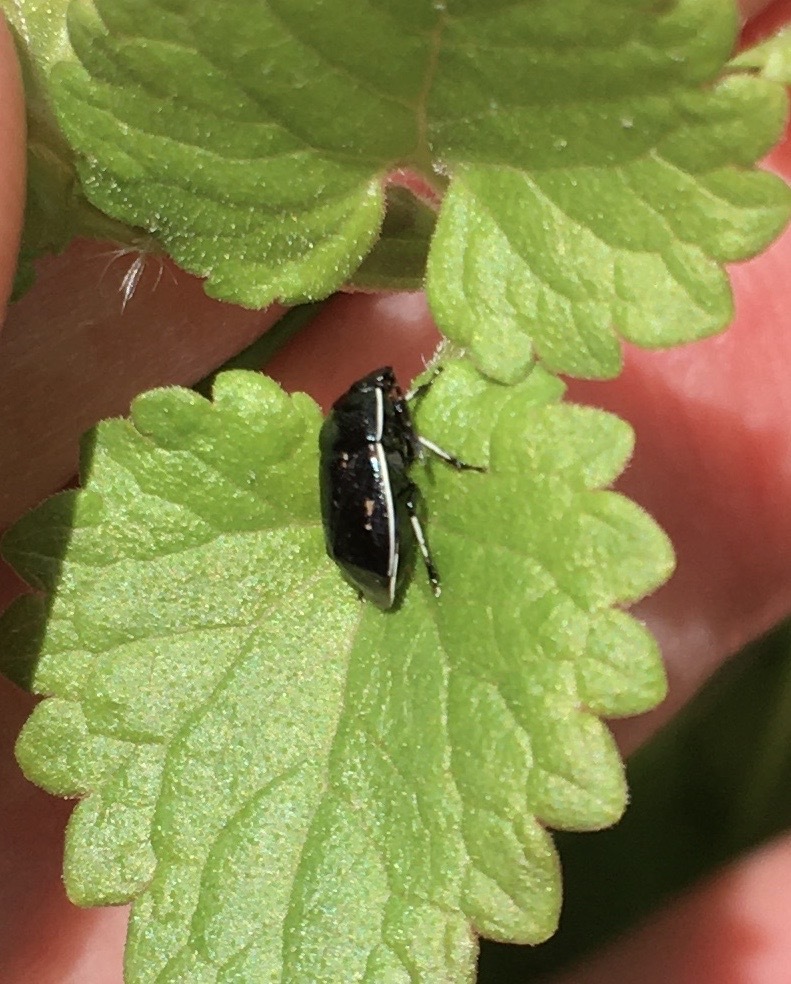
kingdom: Animalia
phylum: Arthropoda
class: Insecta
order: Hemiptera
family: Cydnidae
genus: Sehirus
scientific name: Sehirus cinctus
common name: White-margined burrower bug
